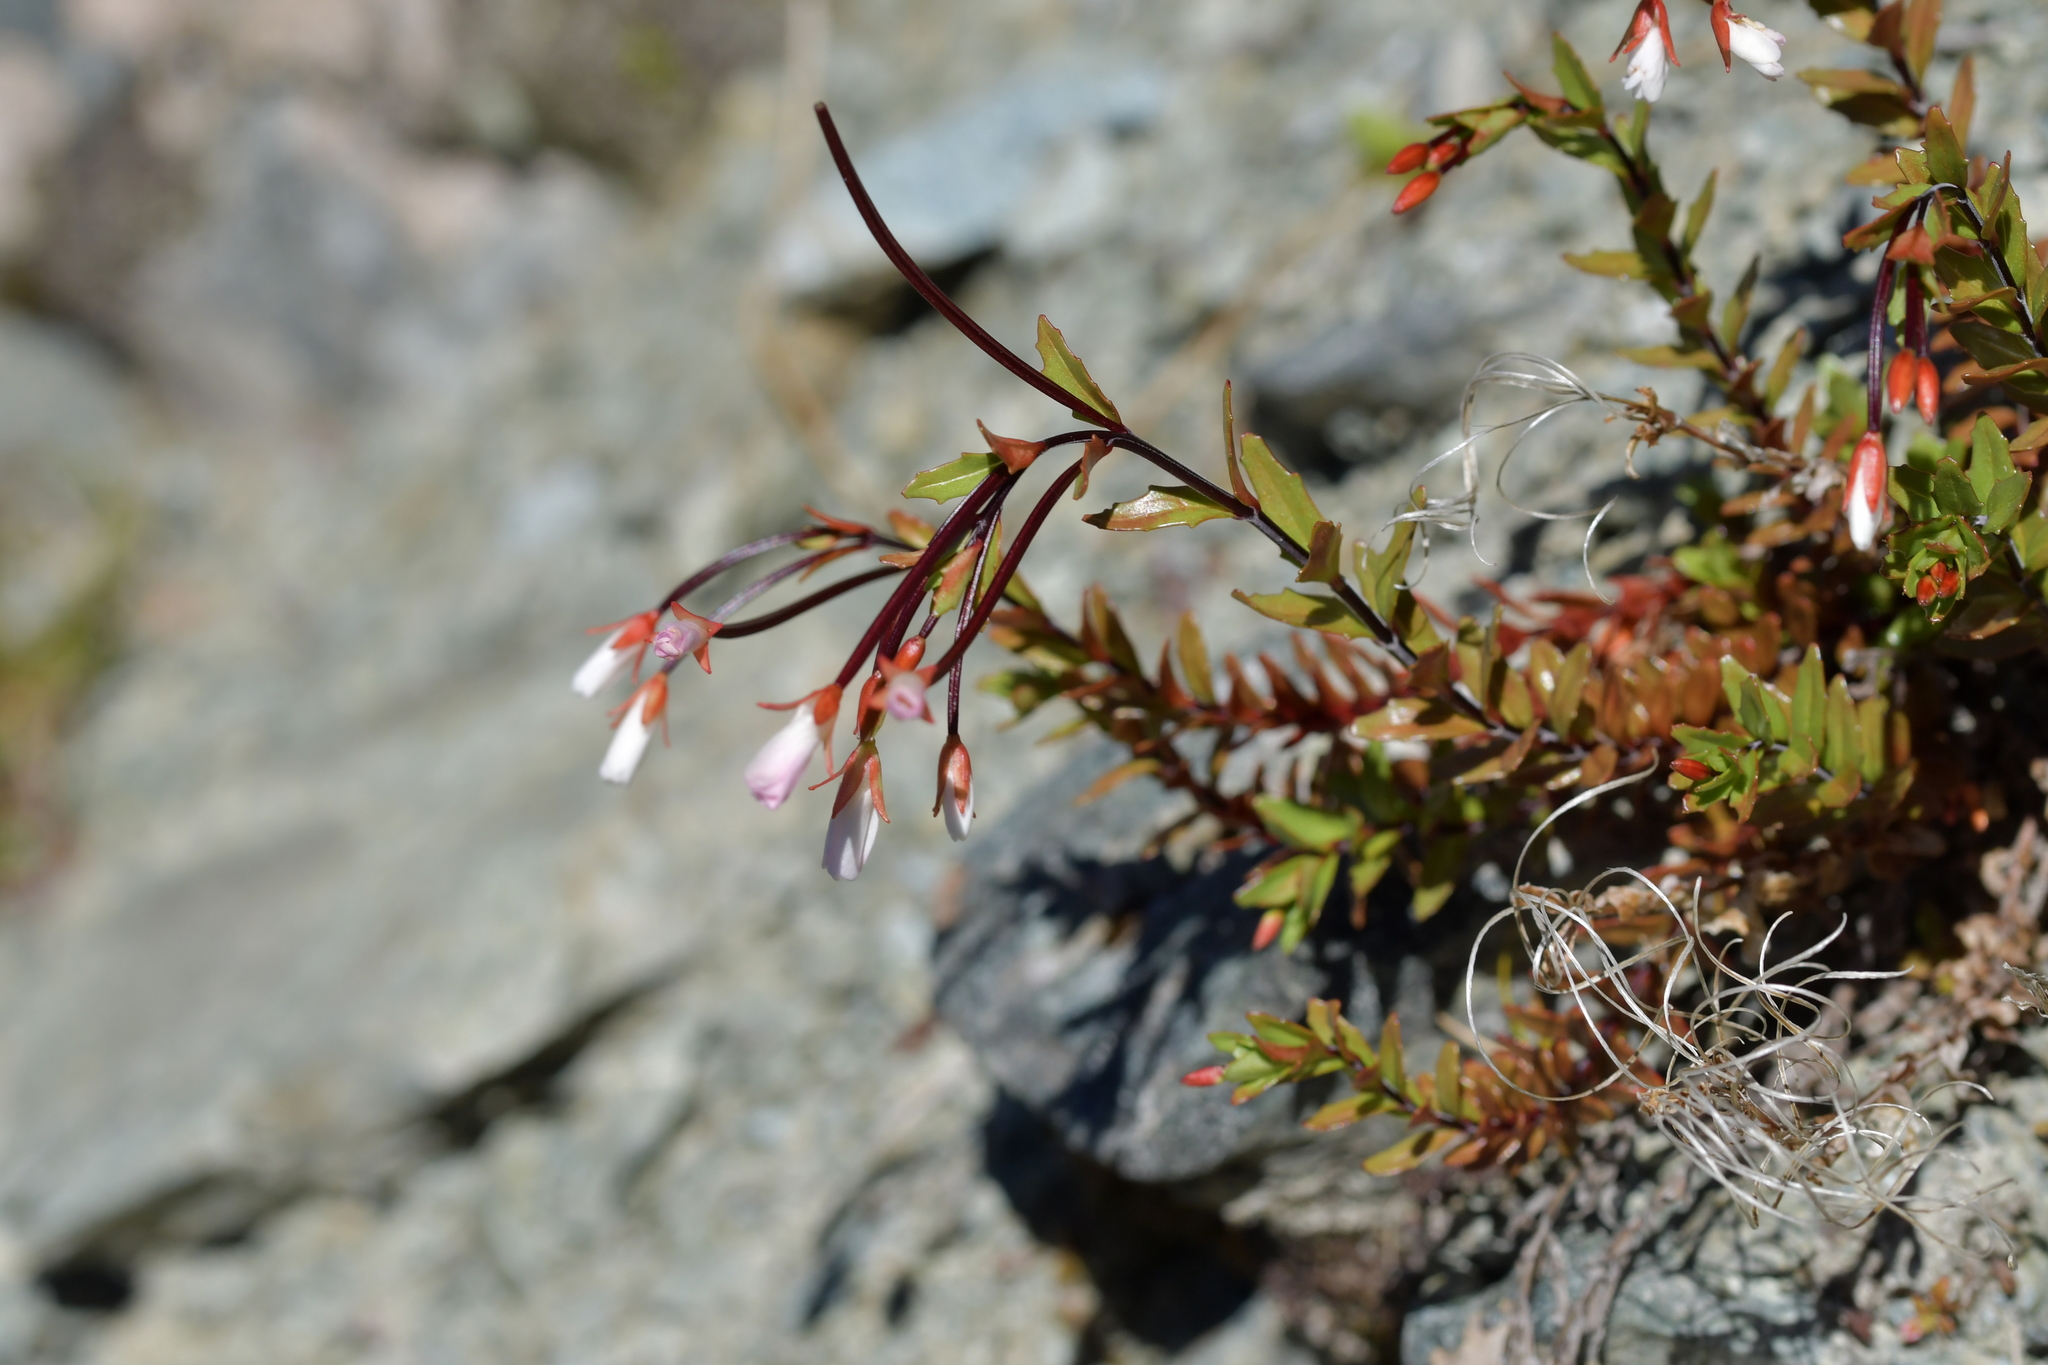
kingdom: Plantae
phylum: Tracheophyta
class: Magnoliopsida
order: Myrtales
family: Onagraceae
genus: Epilobium
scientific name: Epilobium glabellum
